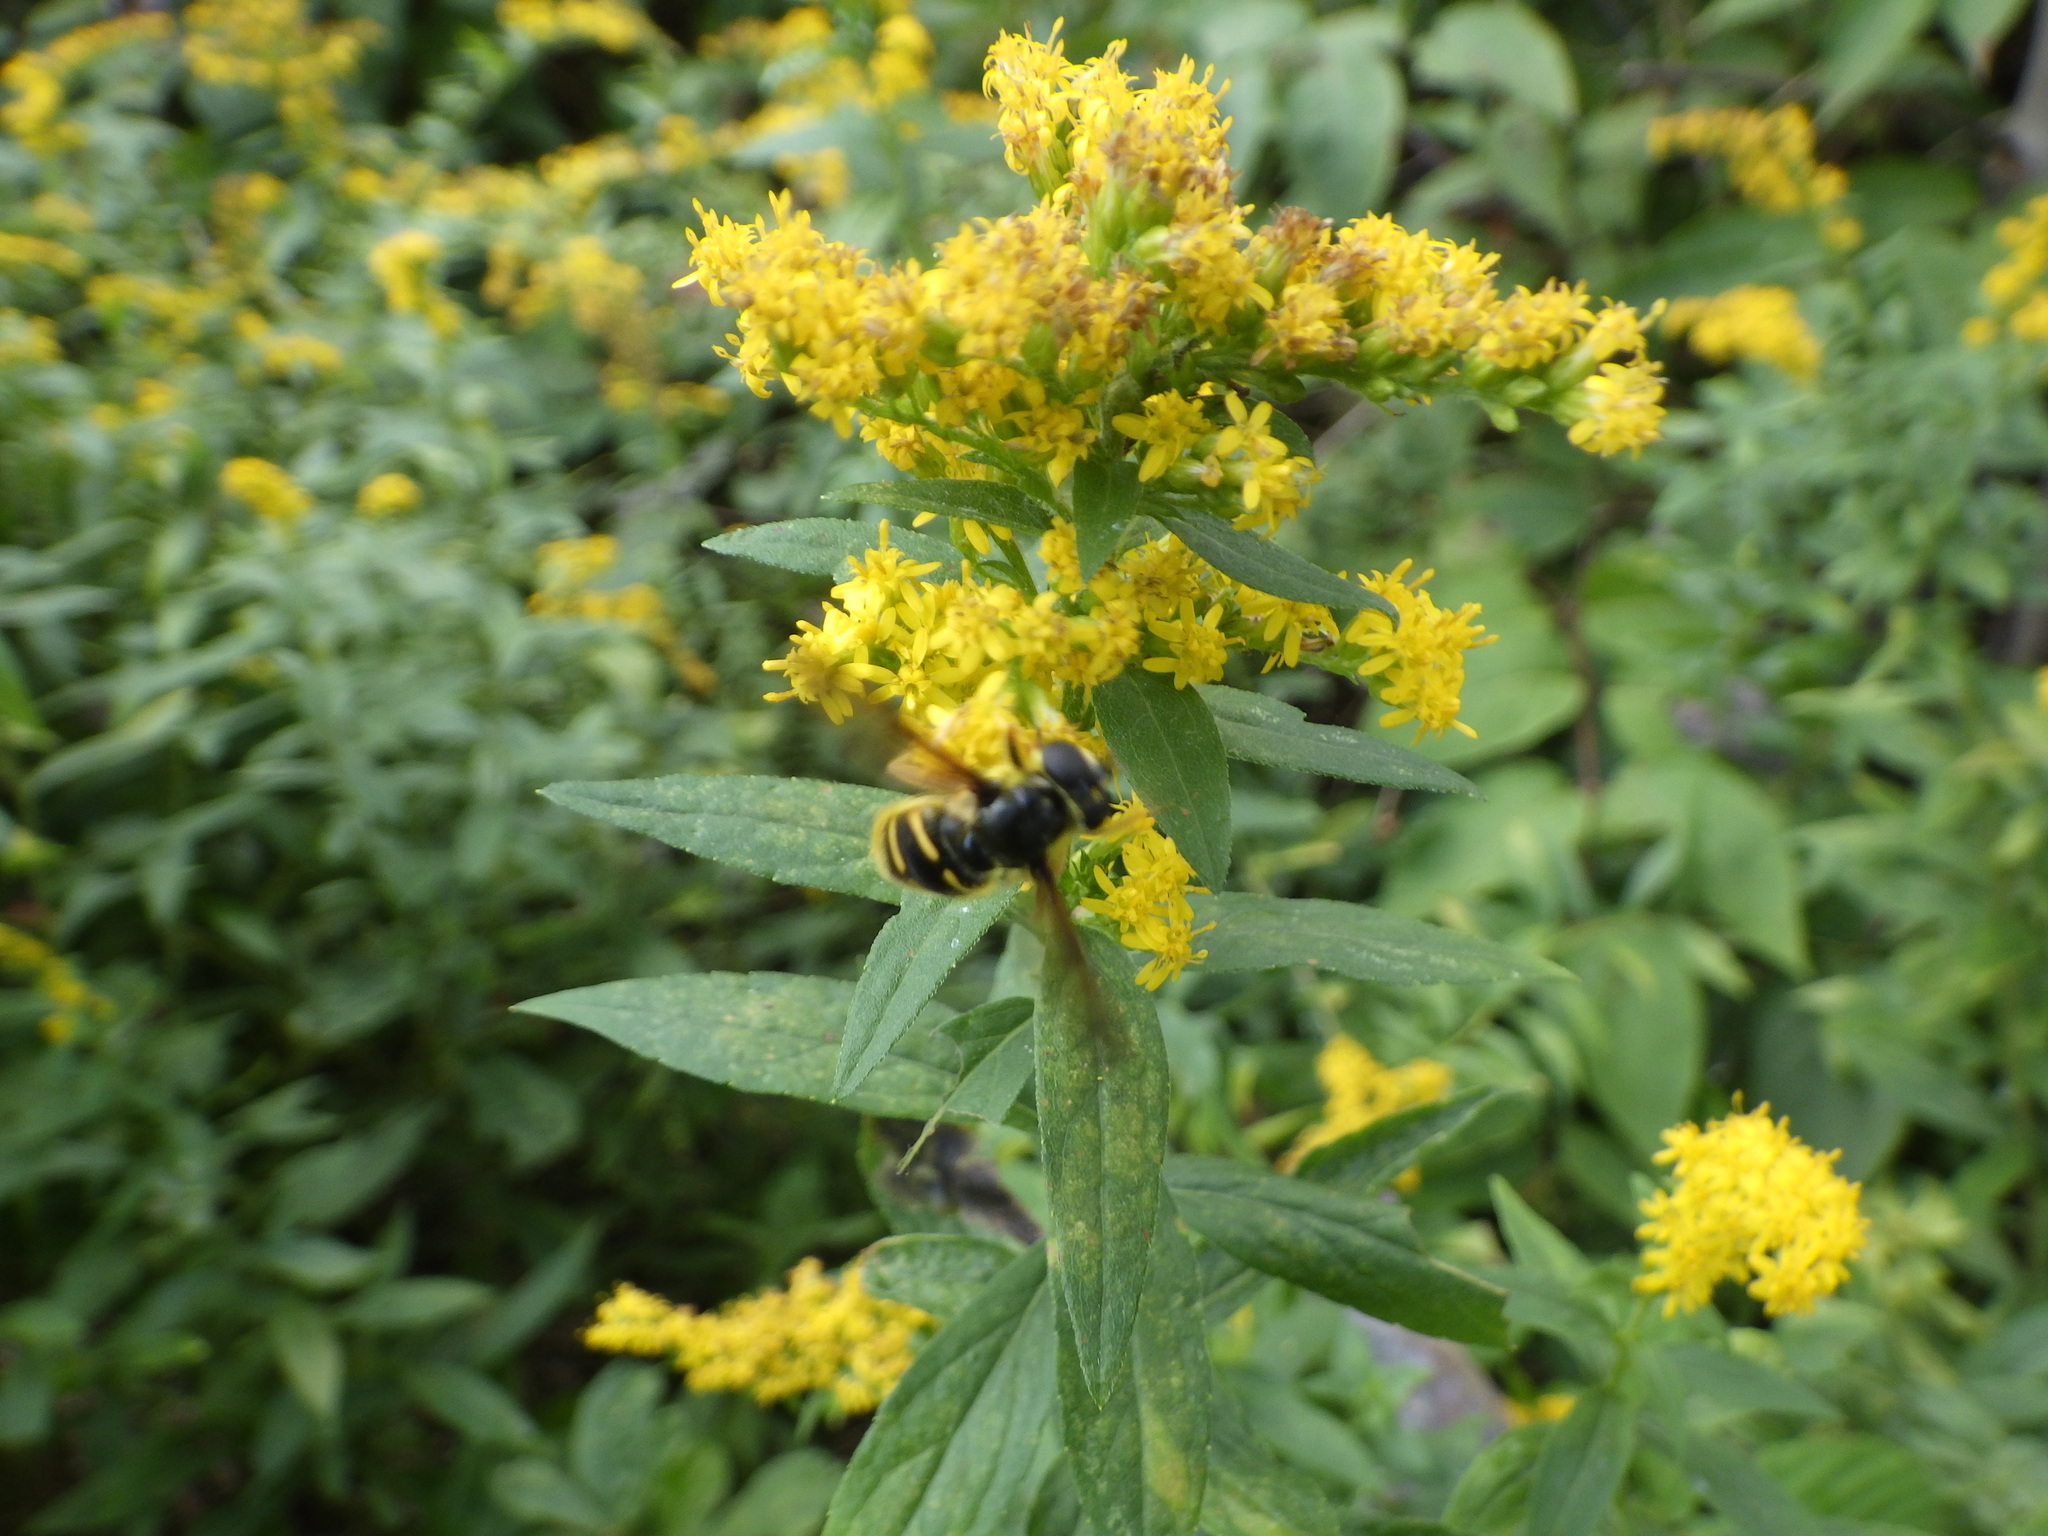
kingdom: Animalia
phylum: Arthropoda
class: Insecta
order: Diptera
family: Syrphidae
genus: Sericomyia
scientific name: Sericomyia chrysotoxoides
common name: Oblique-banded pond fly
